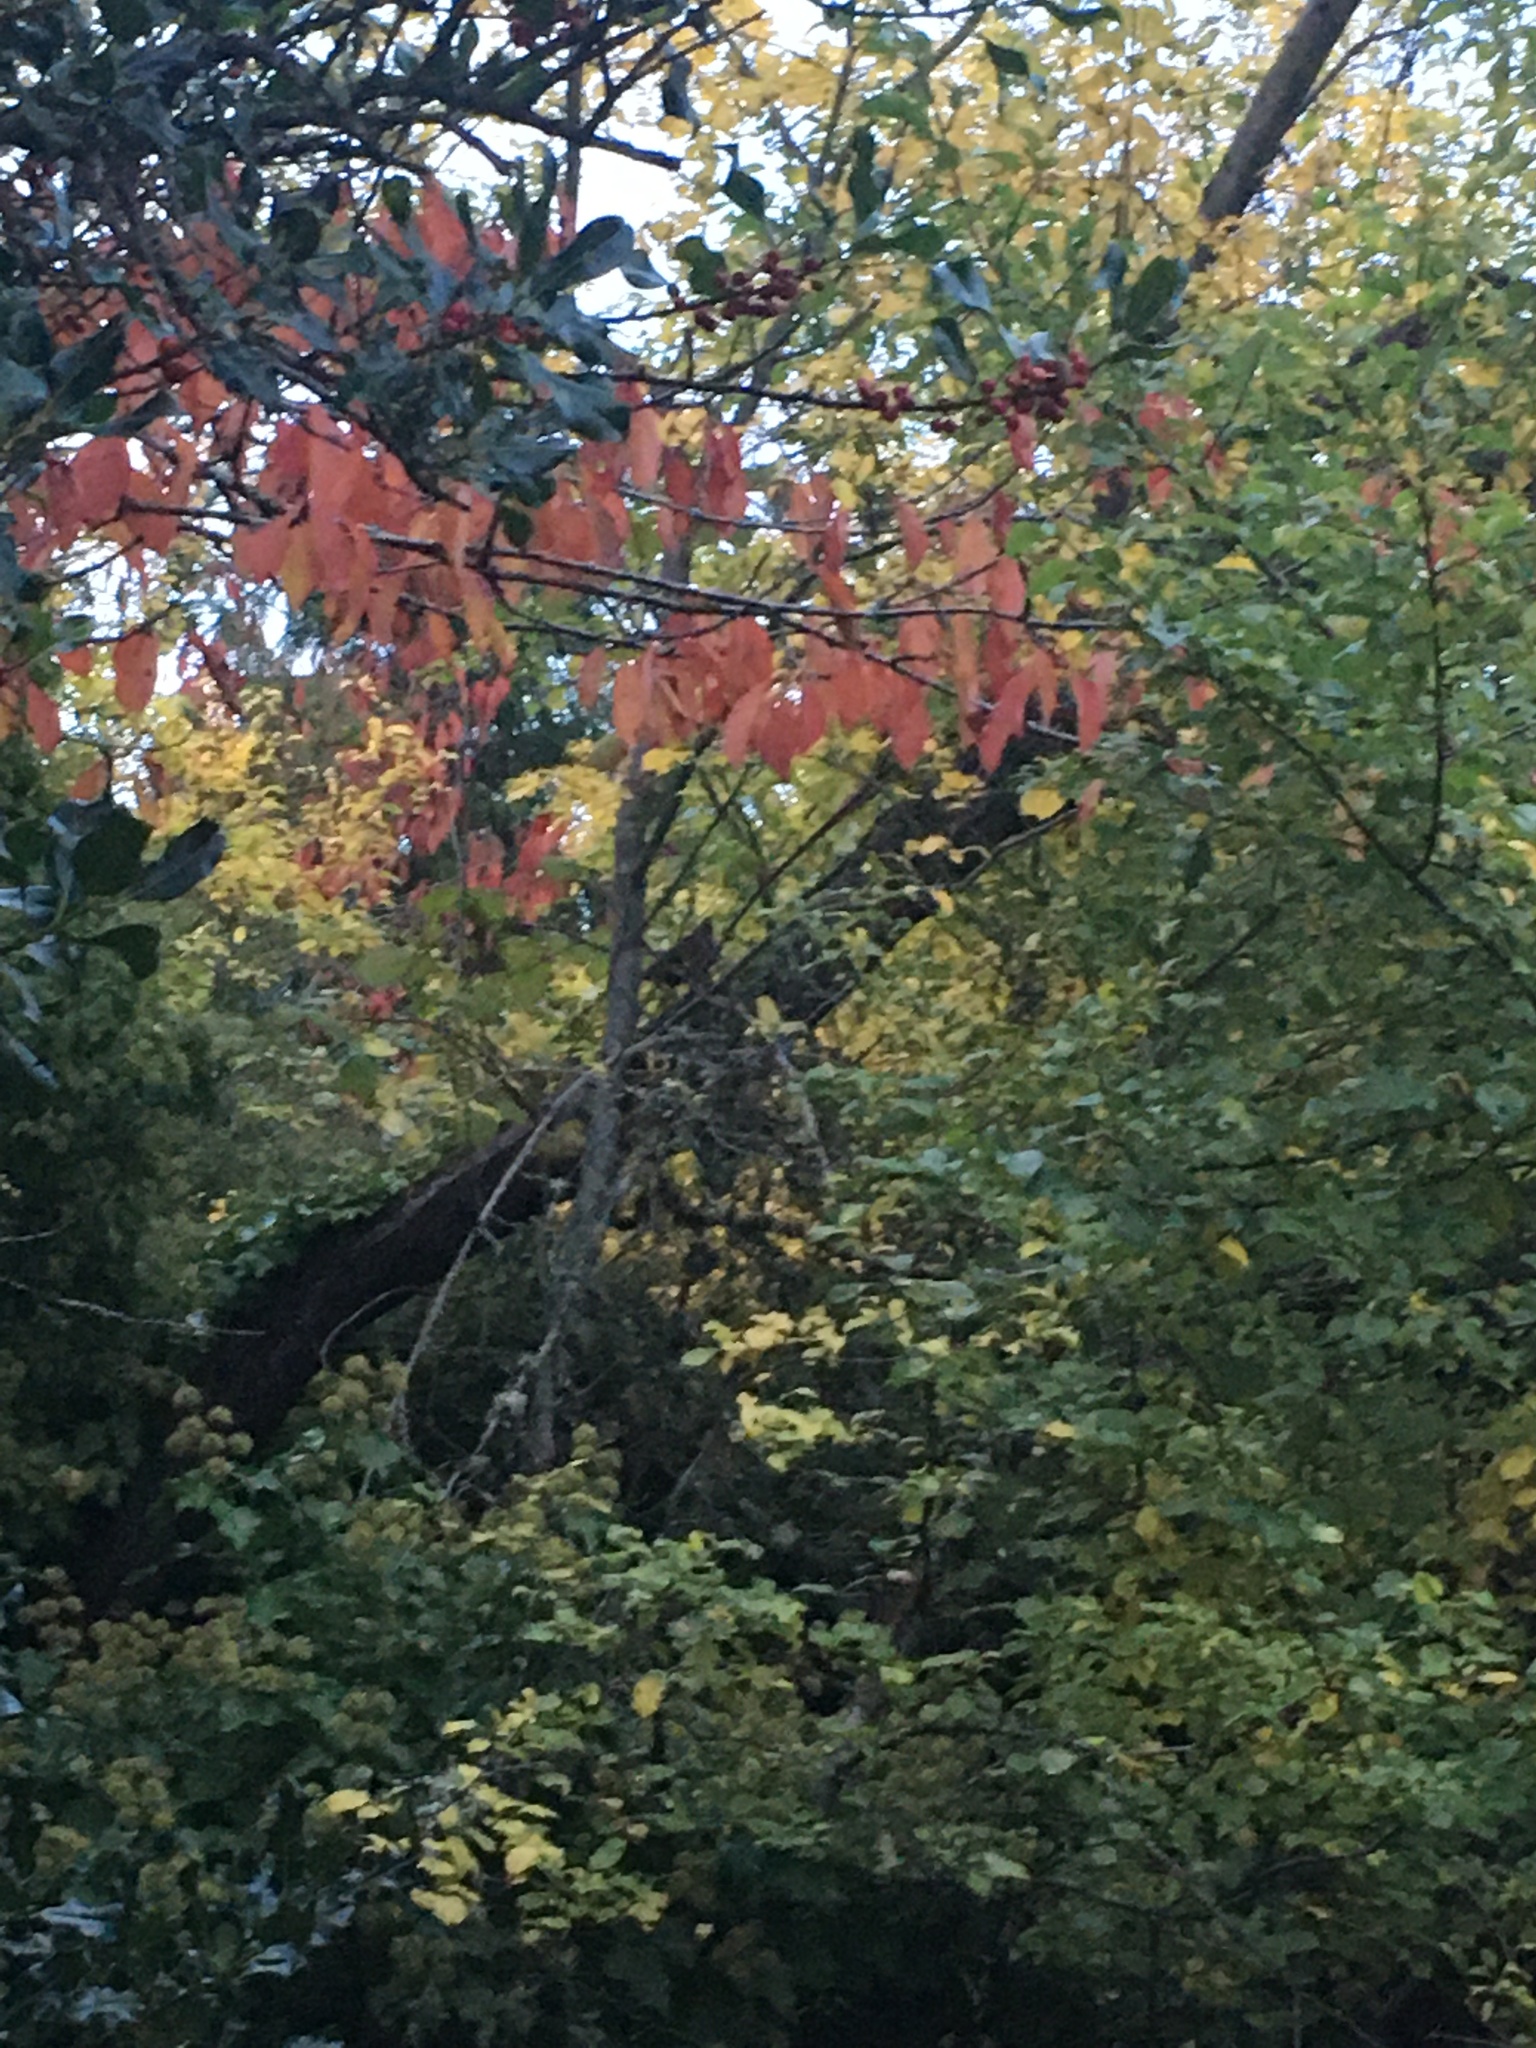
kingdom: Animalia
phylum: Chordata
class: Aves
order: Galliformes
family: Odontophoridae
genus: Callipepla
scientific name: Callipepla californica
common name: California quail
